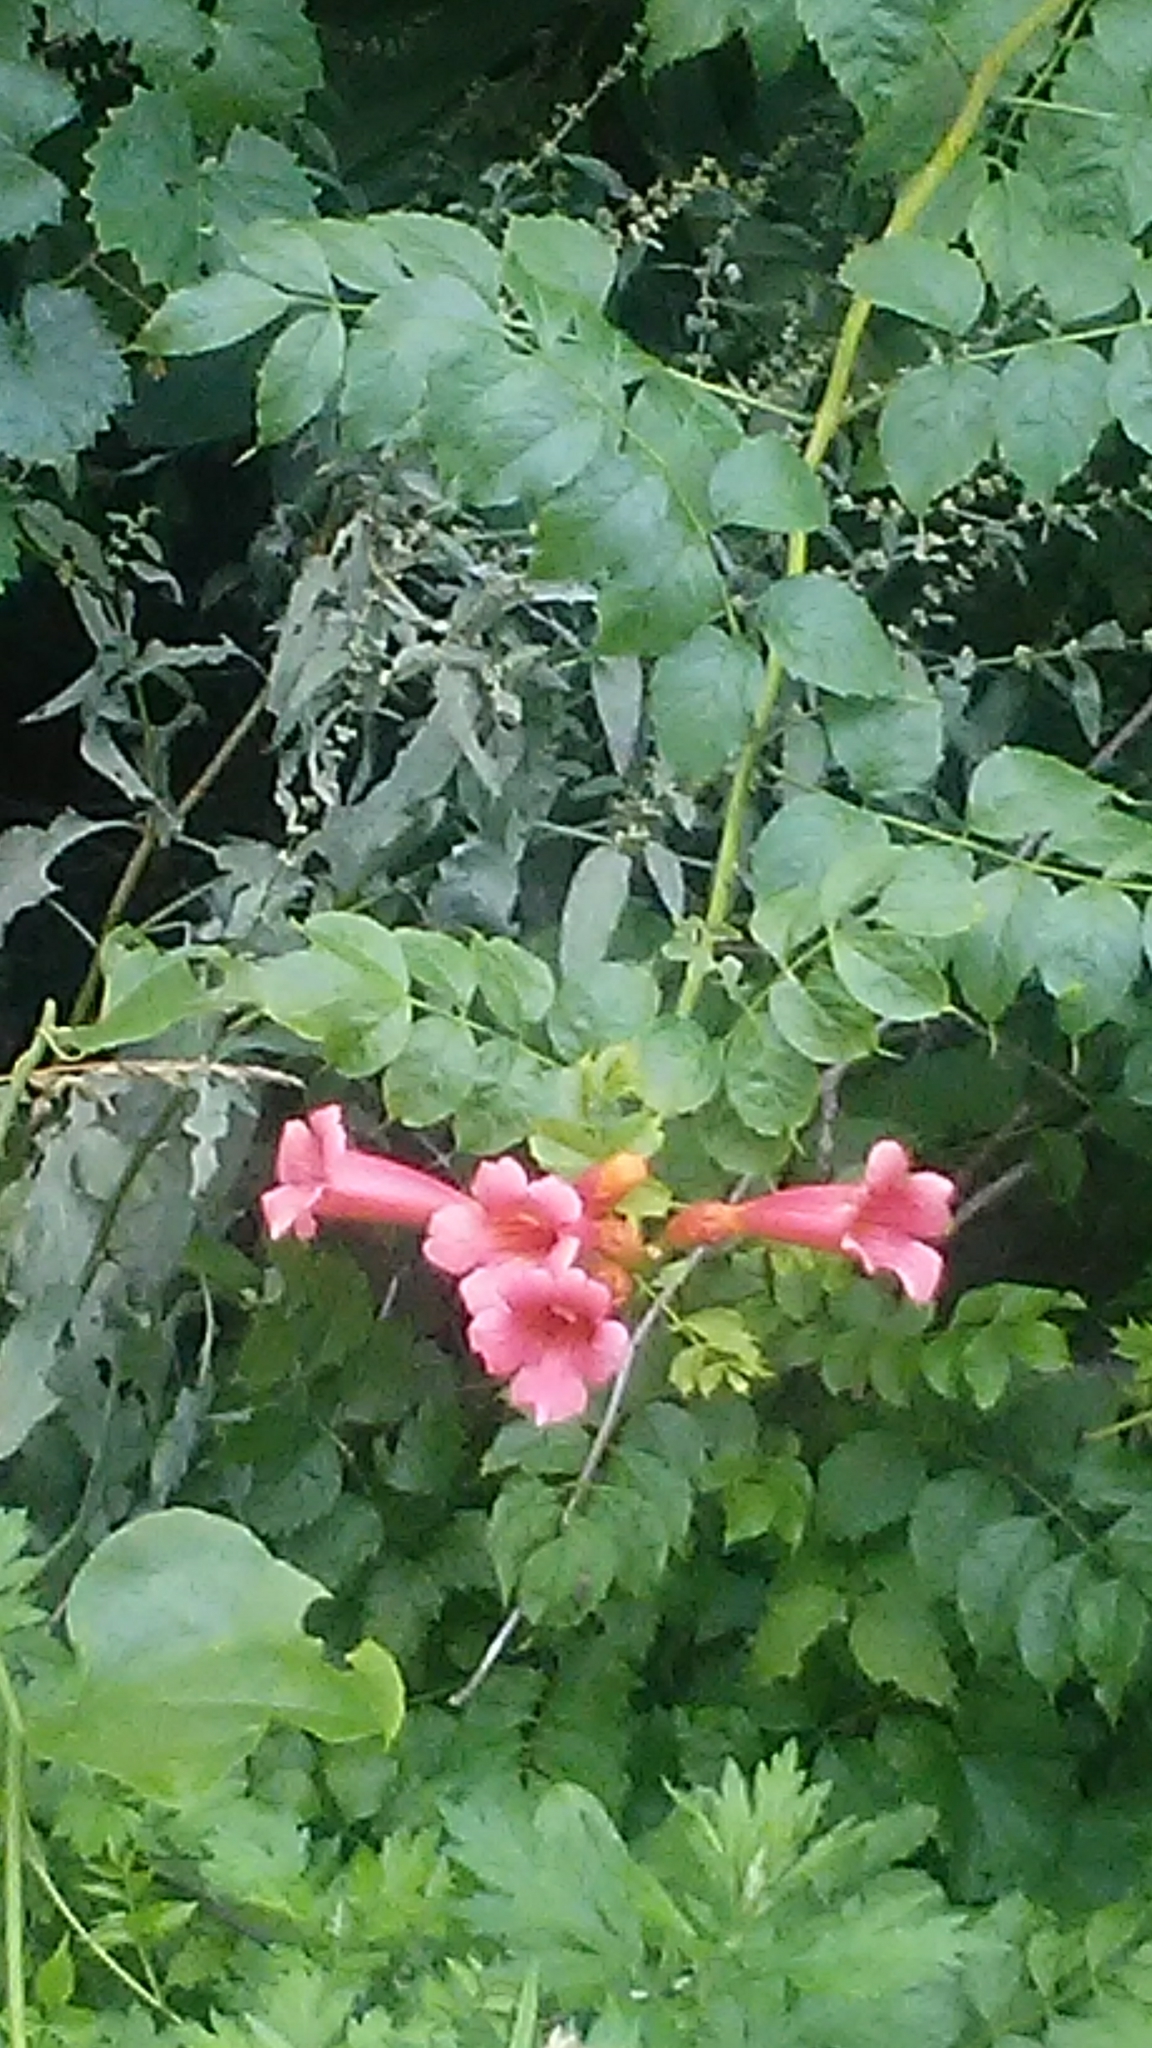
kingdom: Plantae
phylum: Tracheophyta
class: Magnoliopsida
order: Lamiales
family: Bignoniaceae
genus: Campsis
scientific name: Campsis radicans
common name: Trumpet-creeper
